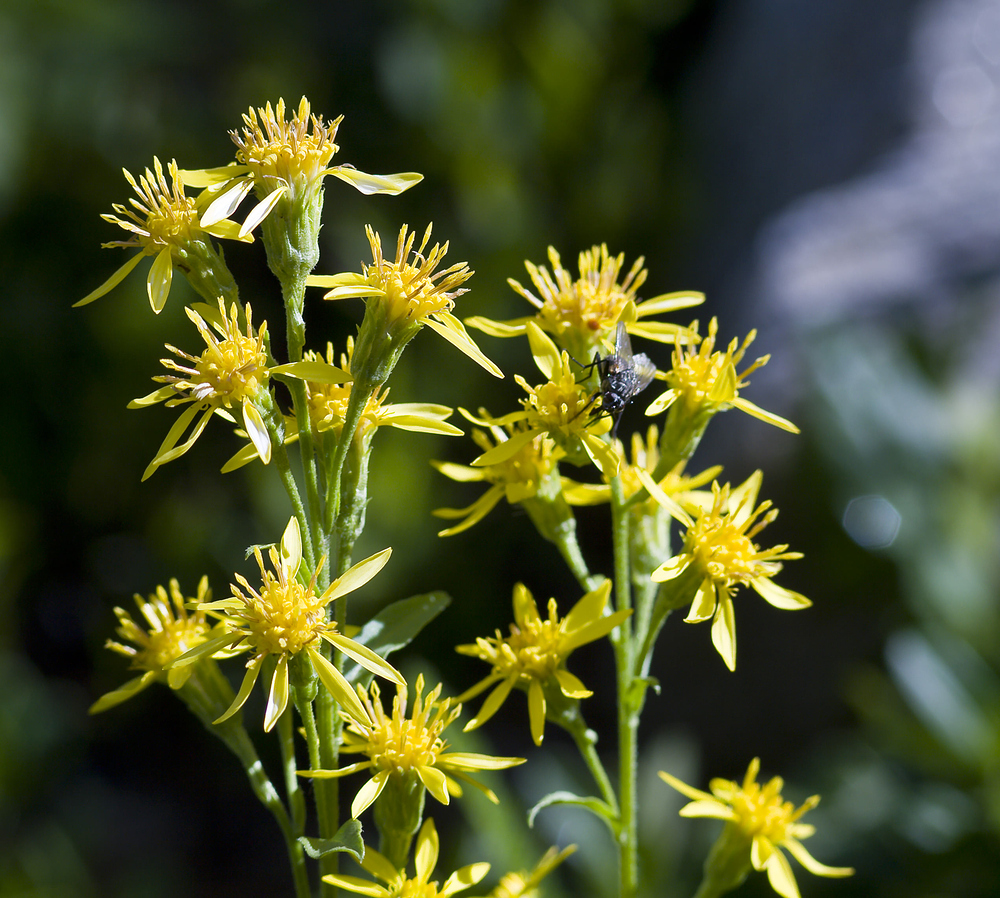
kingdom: Plantae
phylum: Tracheophyta
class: Magnoliopsida
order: Asterales
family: Asteraceae
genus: Solidago
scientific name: Solidago virgaurea
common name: Goldenrod
